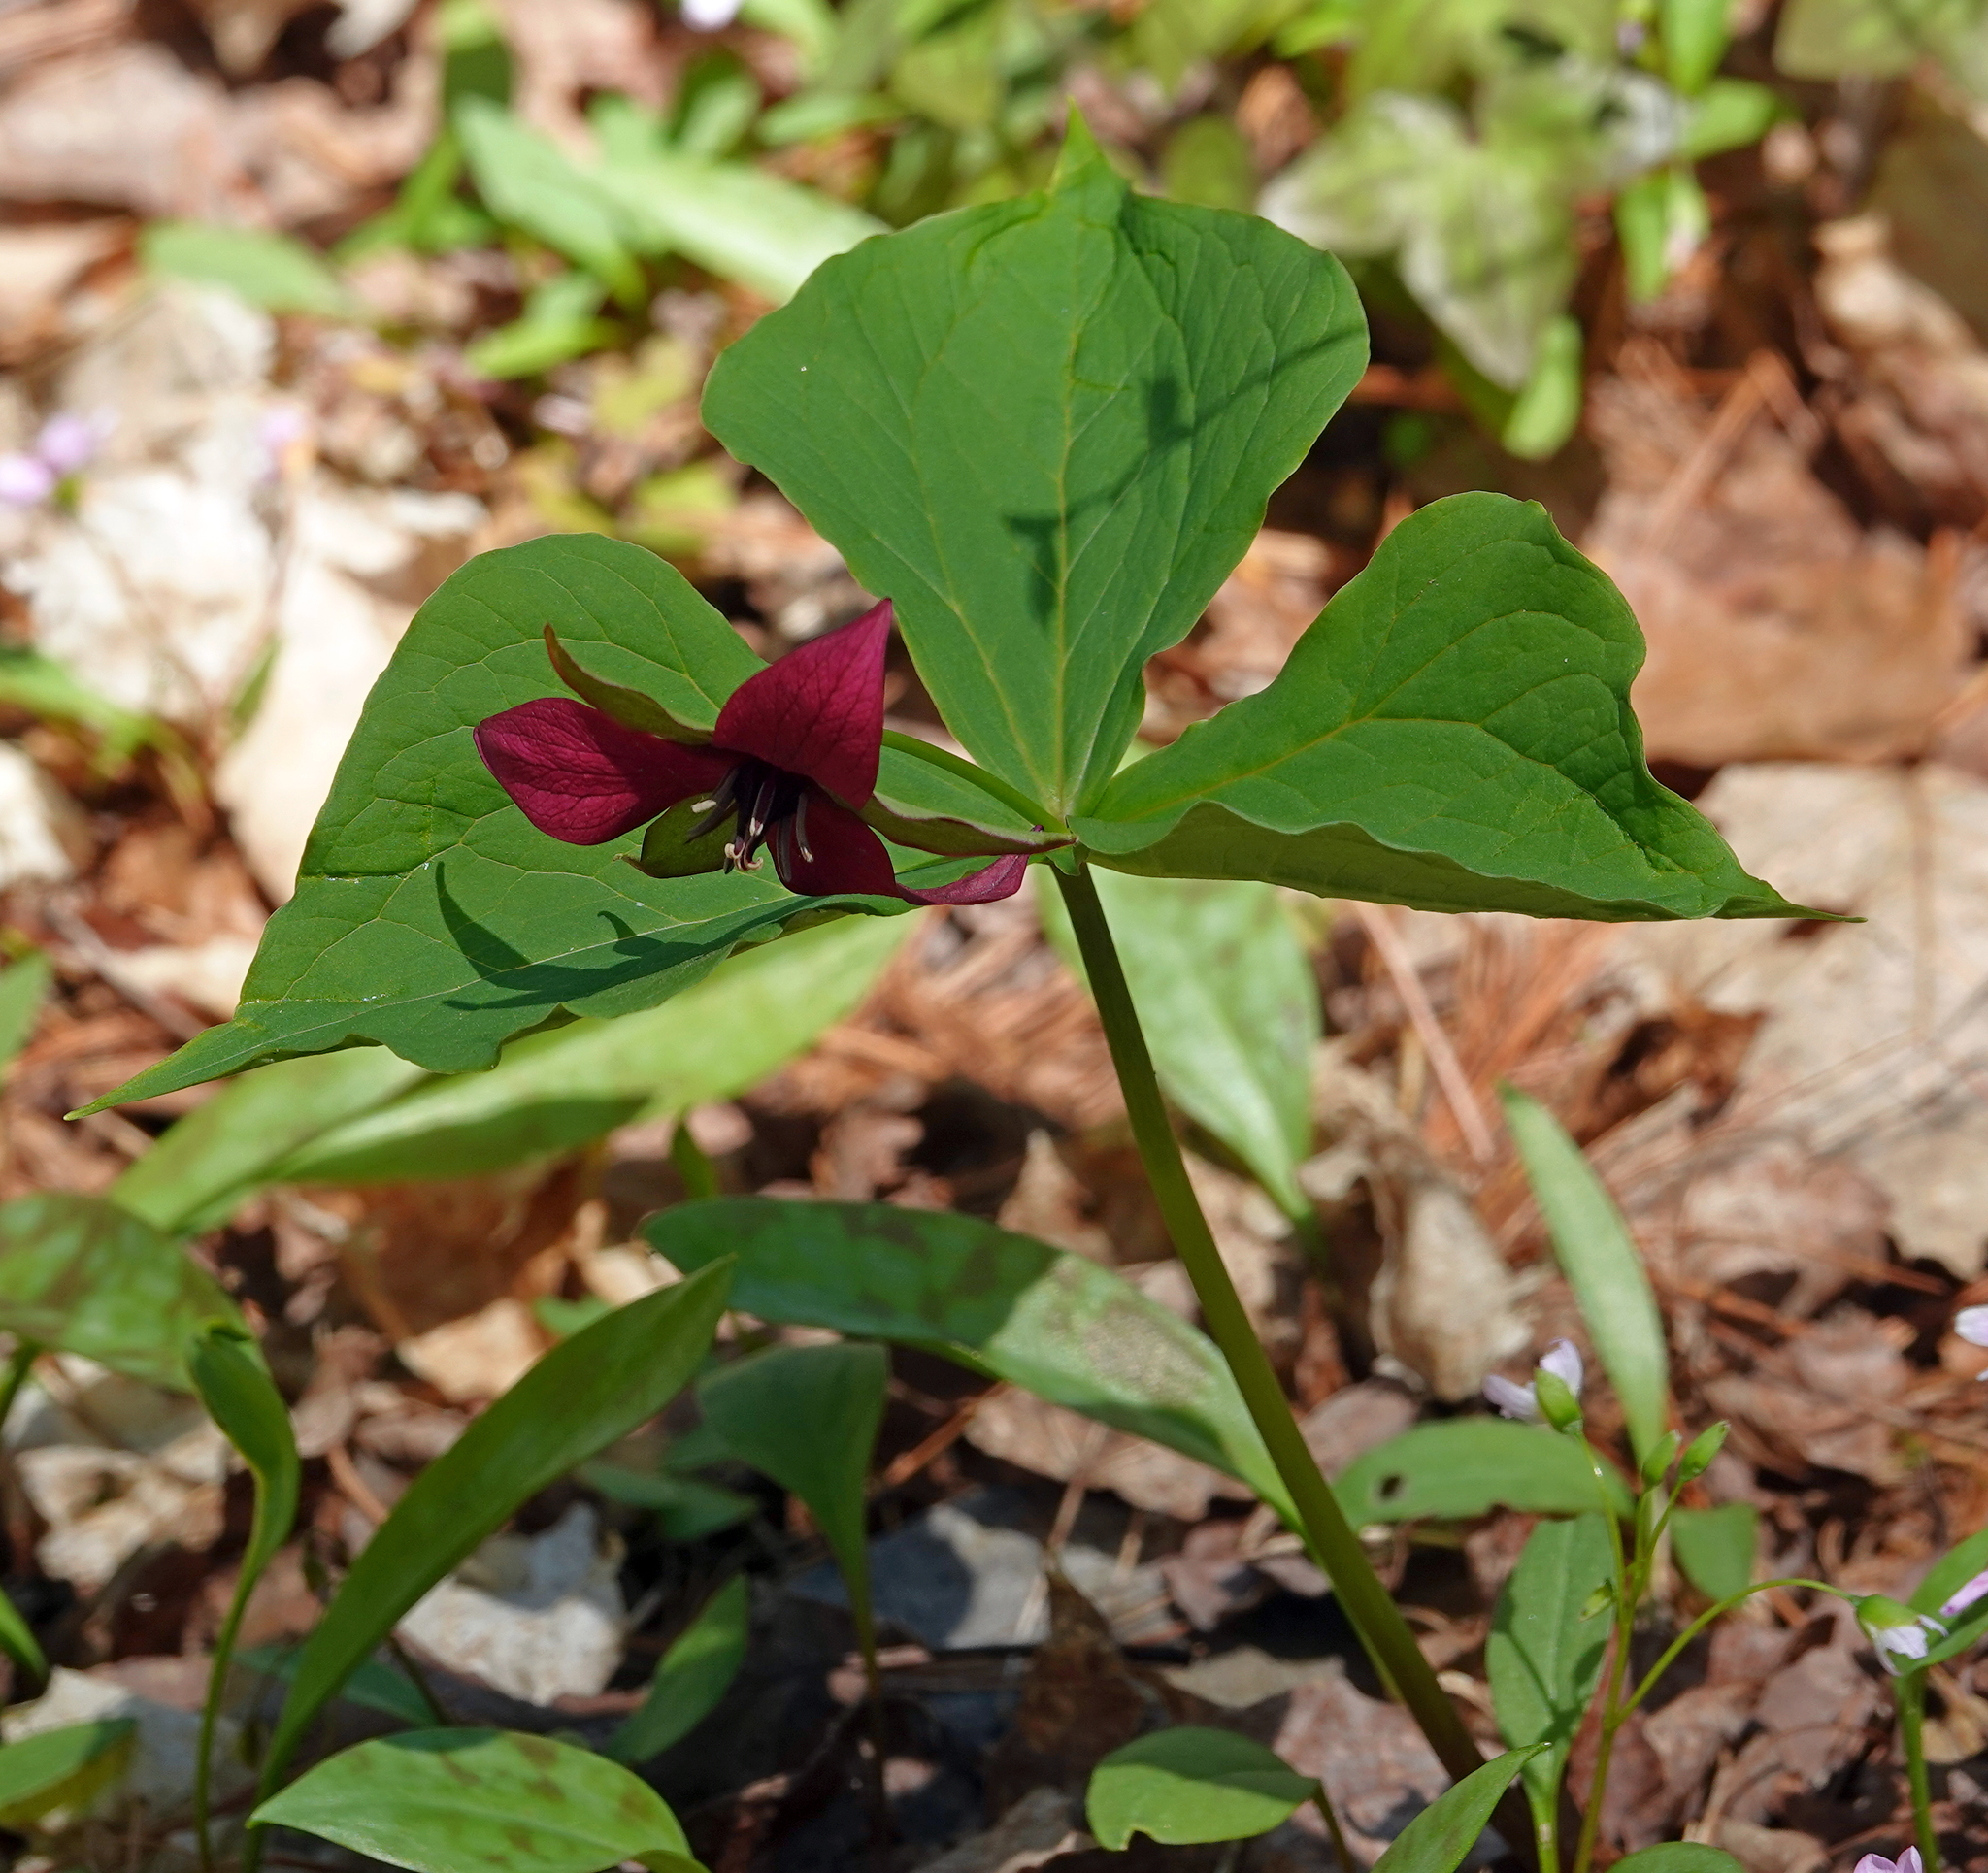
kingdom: Plantae
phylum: Tracheophyta
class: Liliopsida
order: Liliales
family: Melanthiaceae
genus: Trillium
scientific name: Trillium erectum
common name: Purple trillium
